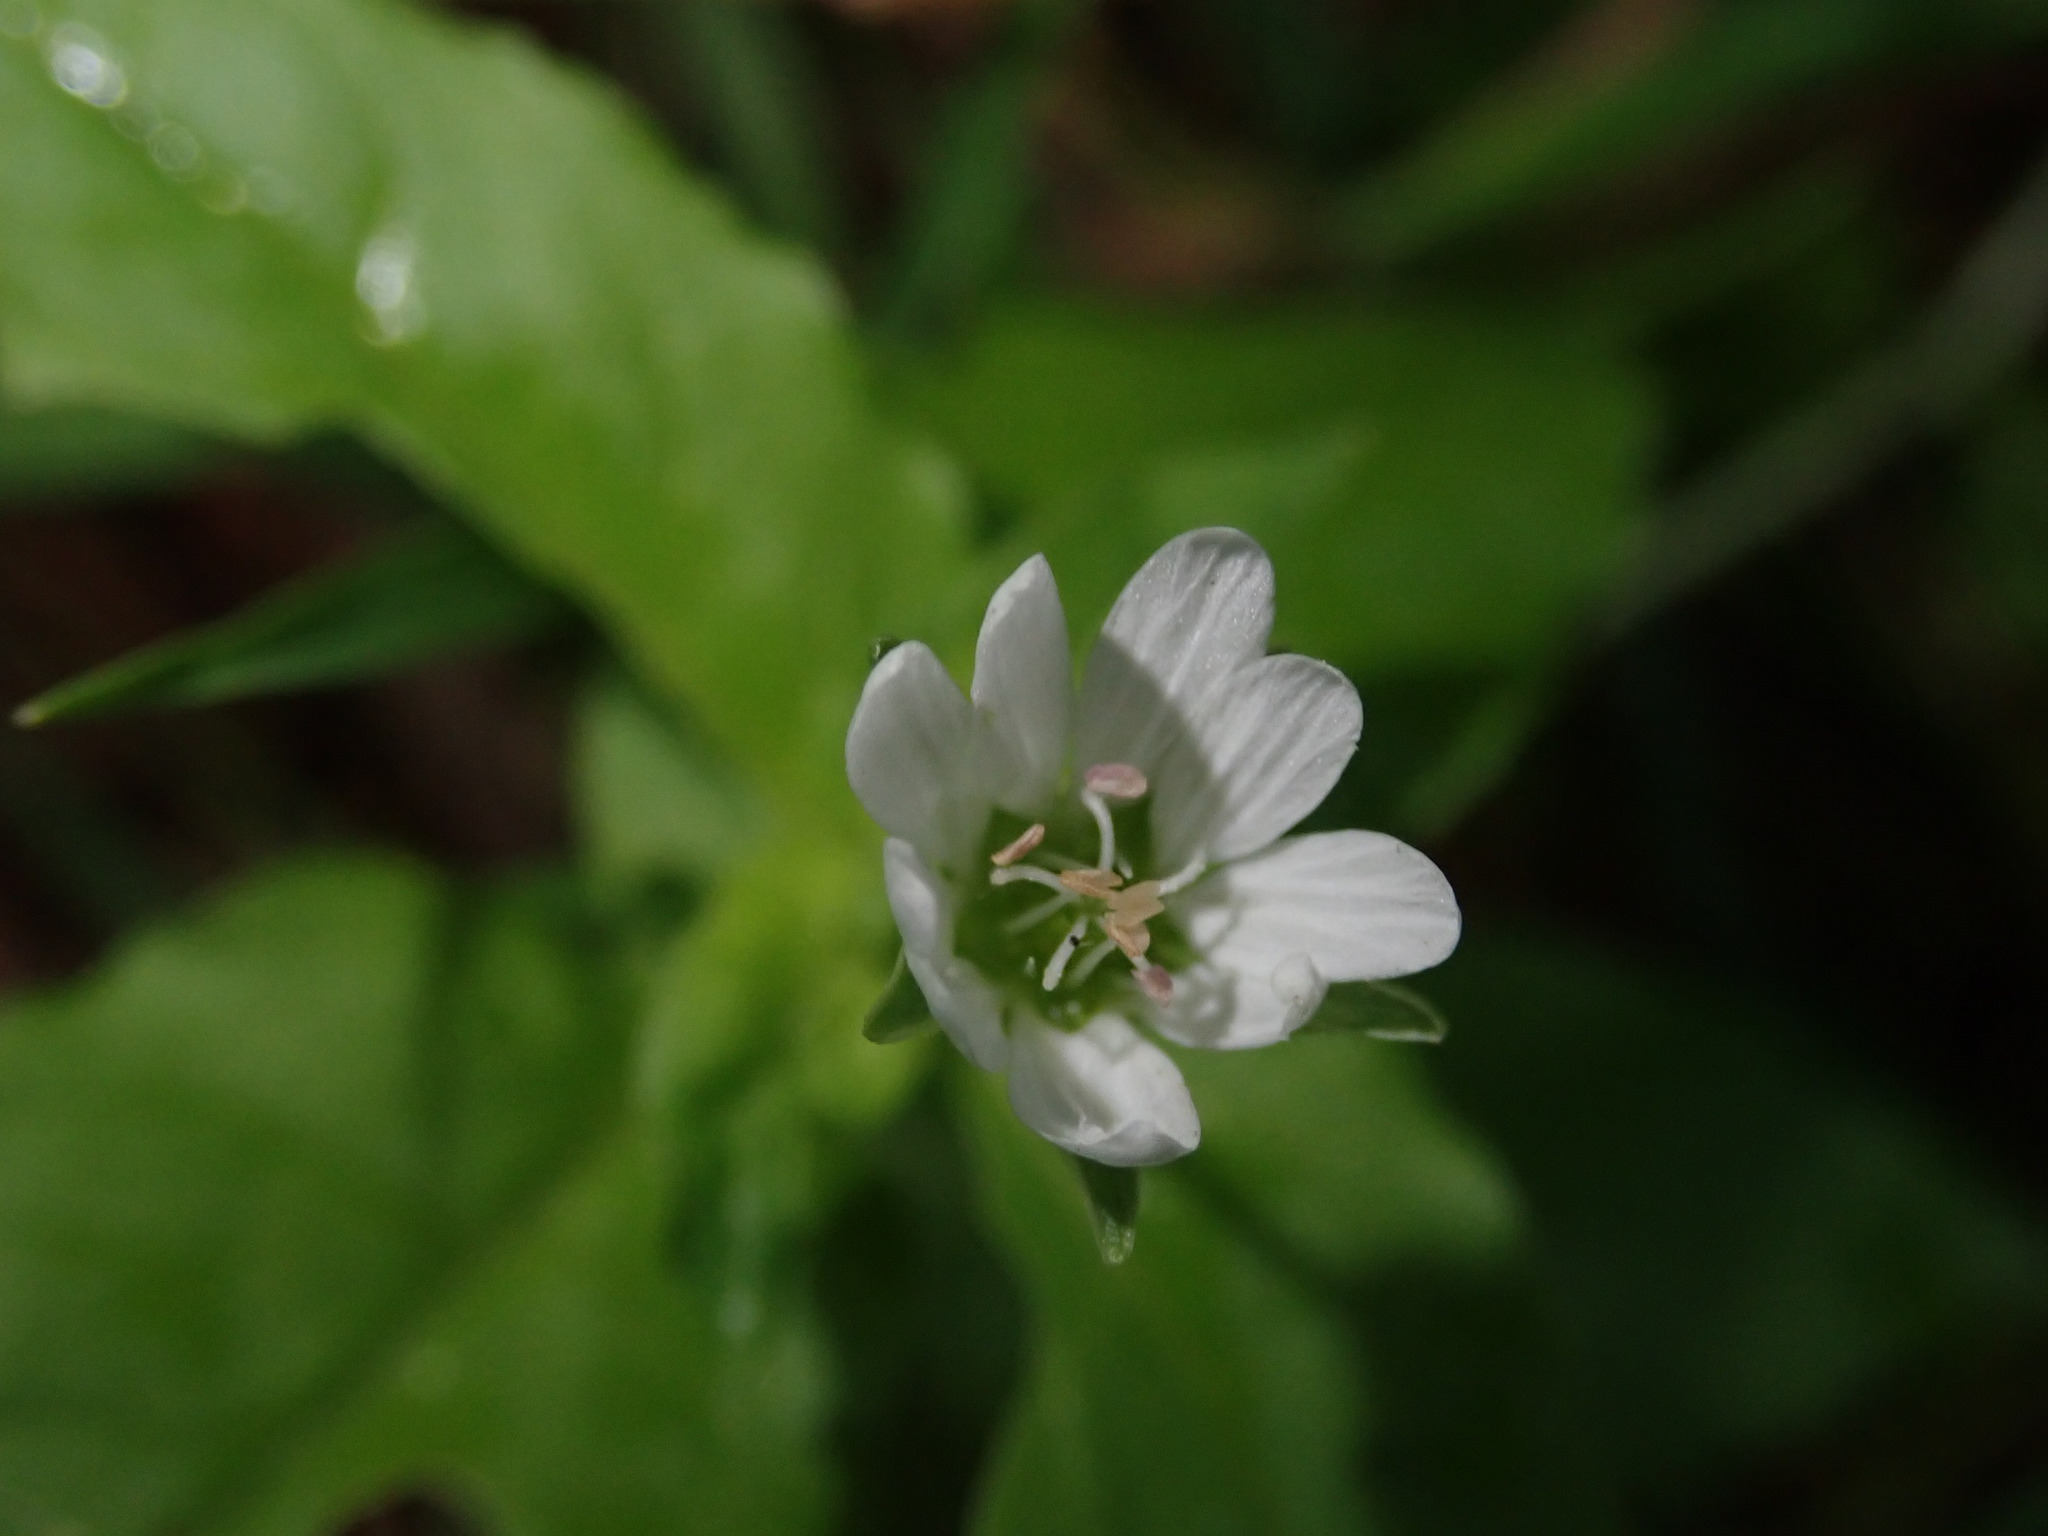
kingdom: Plantae
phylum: Tracheophyta
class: Magnoliopsida
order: Caryophyllales
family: Caryophyllaceae
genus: Stellaria
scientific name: Stellaria aquatica
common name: Water chickweed
